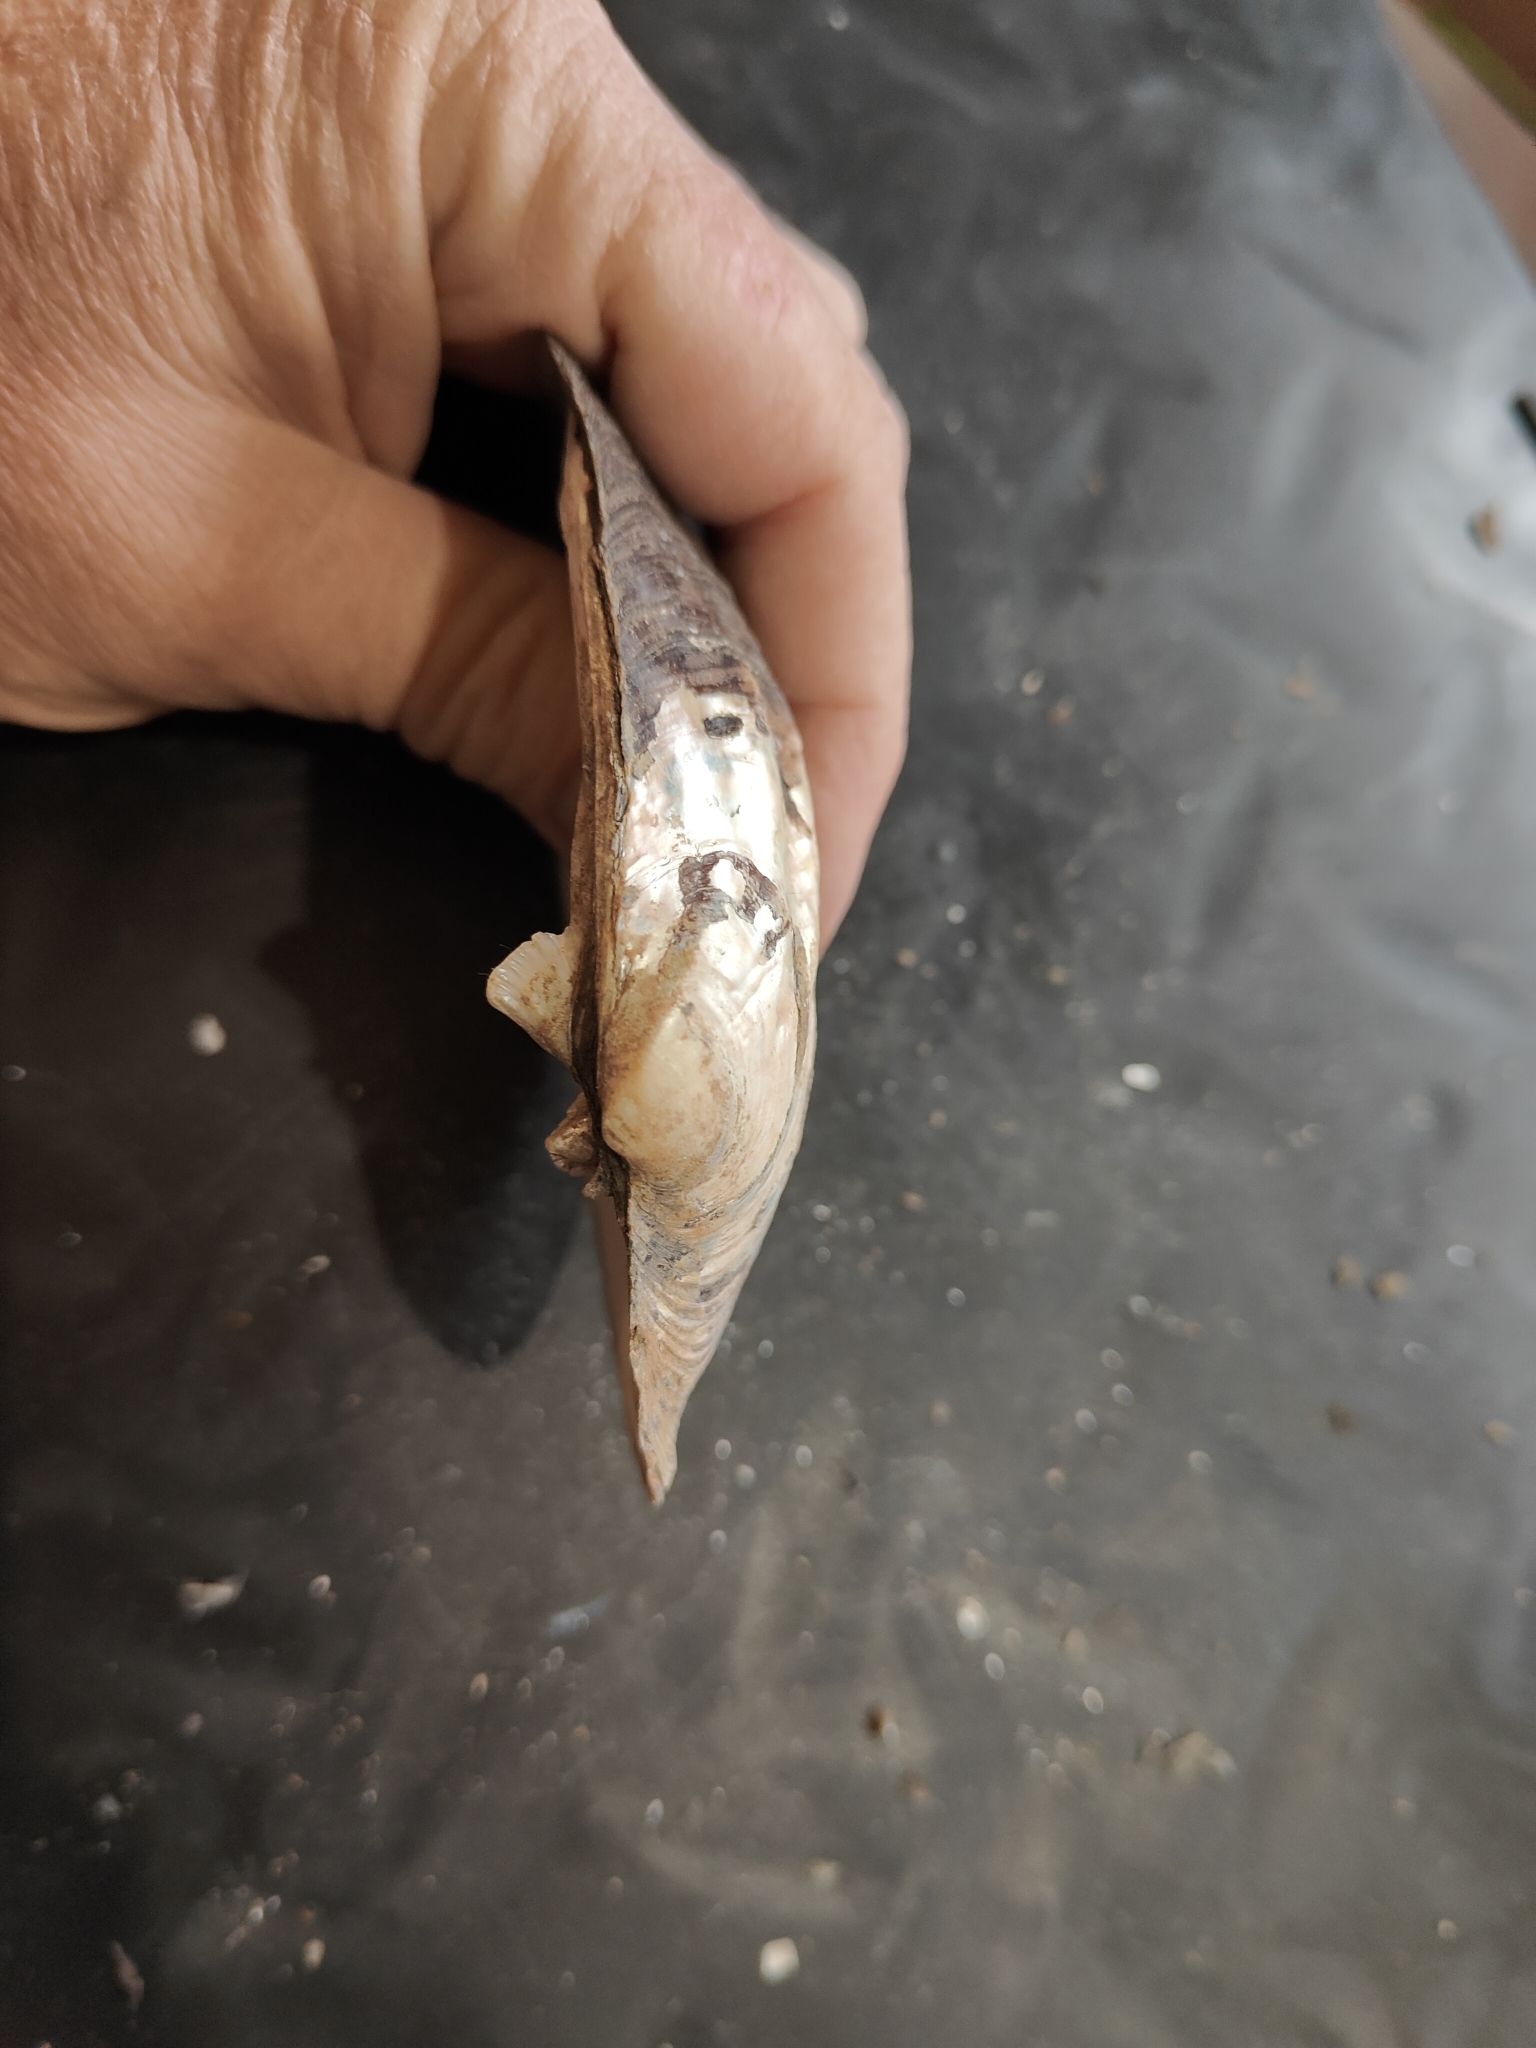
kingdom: Animalia
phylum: Mollusca
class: Bivalvia
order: Unionida
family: Unionidae
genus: Amblema
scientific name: Amblema plicata
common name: Threeridge
